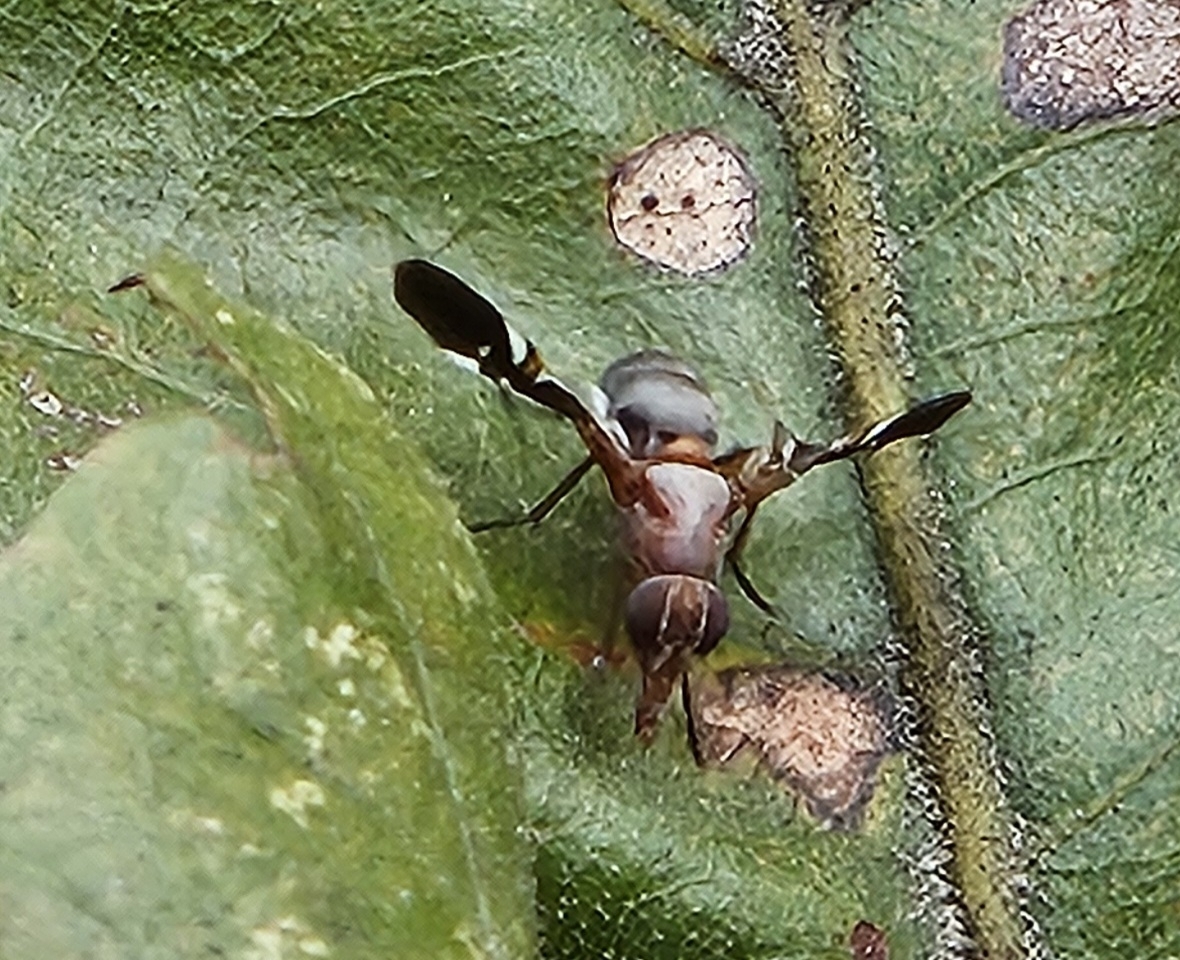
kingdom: Animalia
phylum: Arthropoda
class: Insecta
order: Diptera
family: Ulidiidae
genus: Delphinia
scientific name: Delphinia picta
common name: Common picture-winged fly
